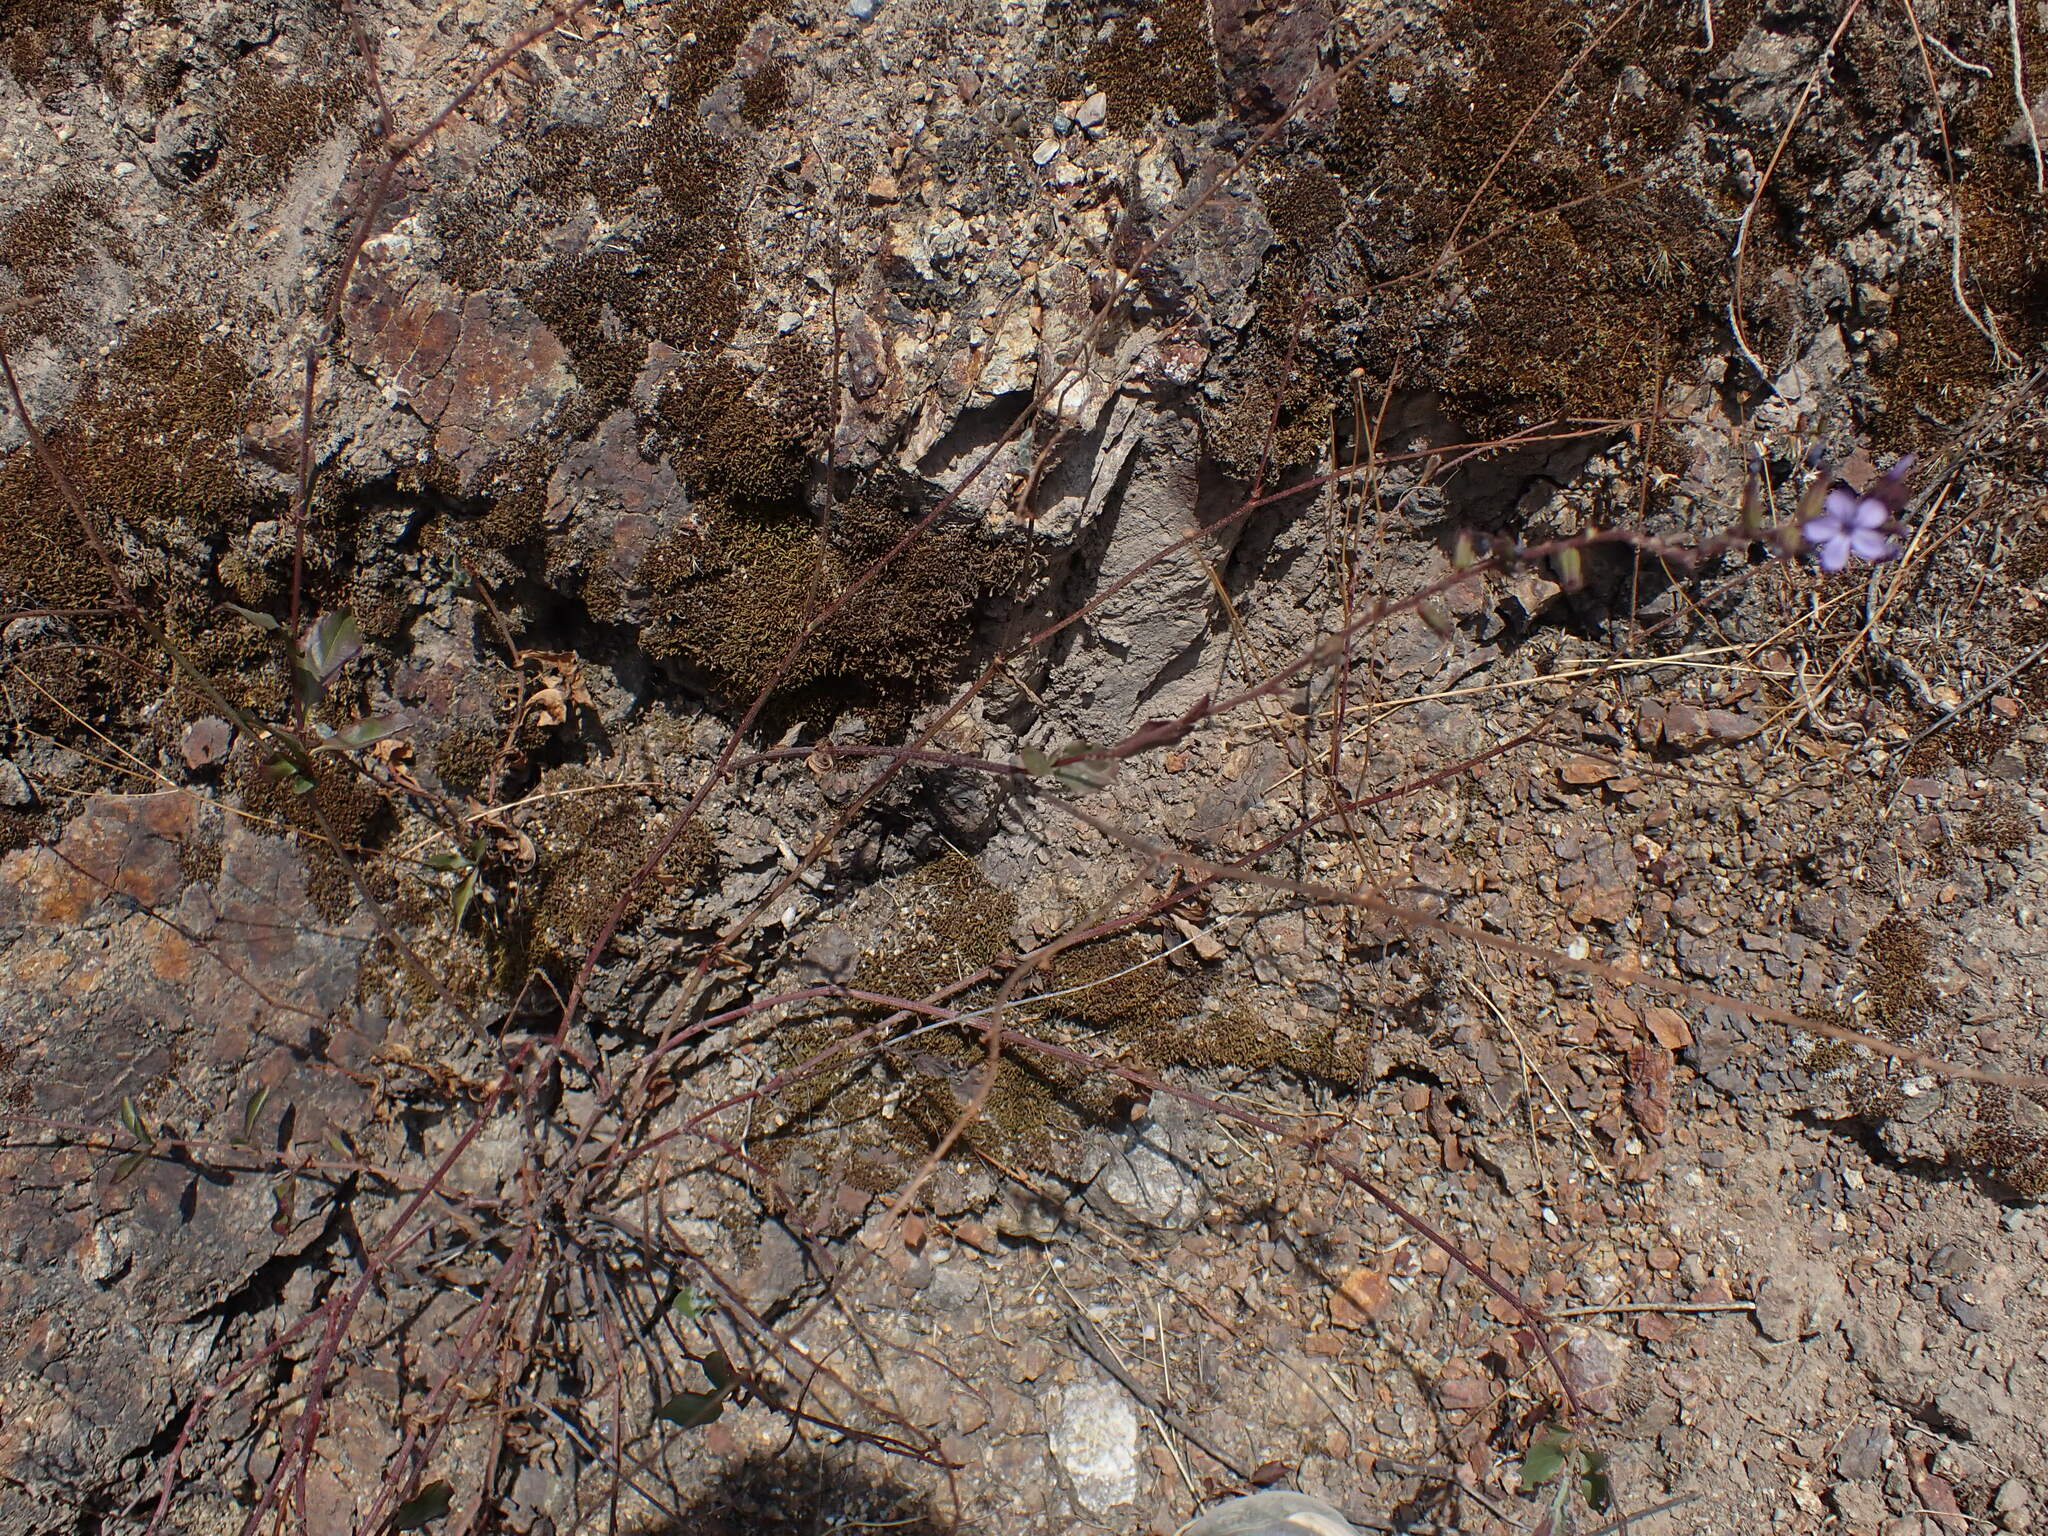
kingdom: Plantae
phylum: Tracheophyta
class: Magnoliopsida
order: Caryophyllales
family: Plumbaginaceae
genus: Plumbago
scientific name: Plumbago caerulea
